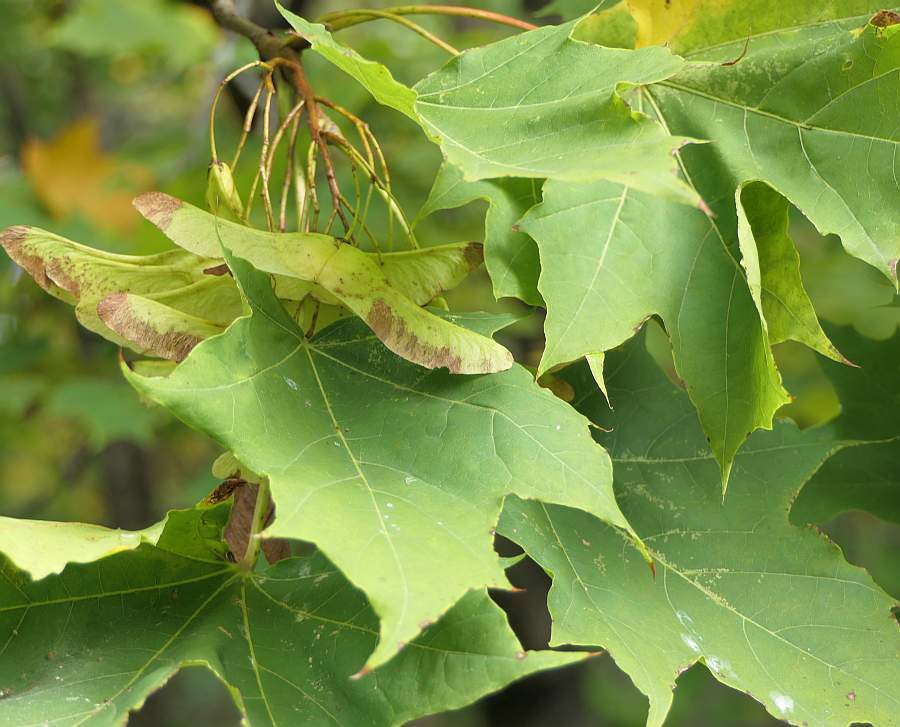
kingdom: Plantae
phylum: Tracheophyta
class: Magnoliopsida
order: Sapindales
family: Sapindaceae
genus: Acer
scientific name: Acer platanoides
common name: Norway maple
